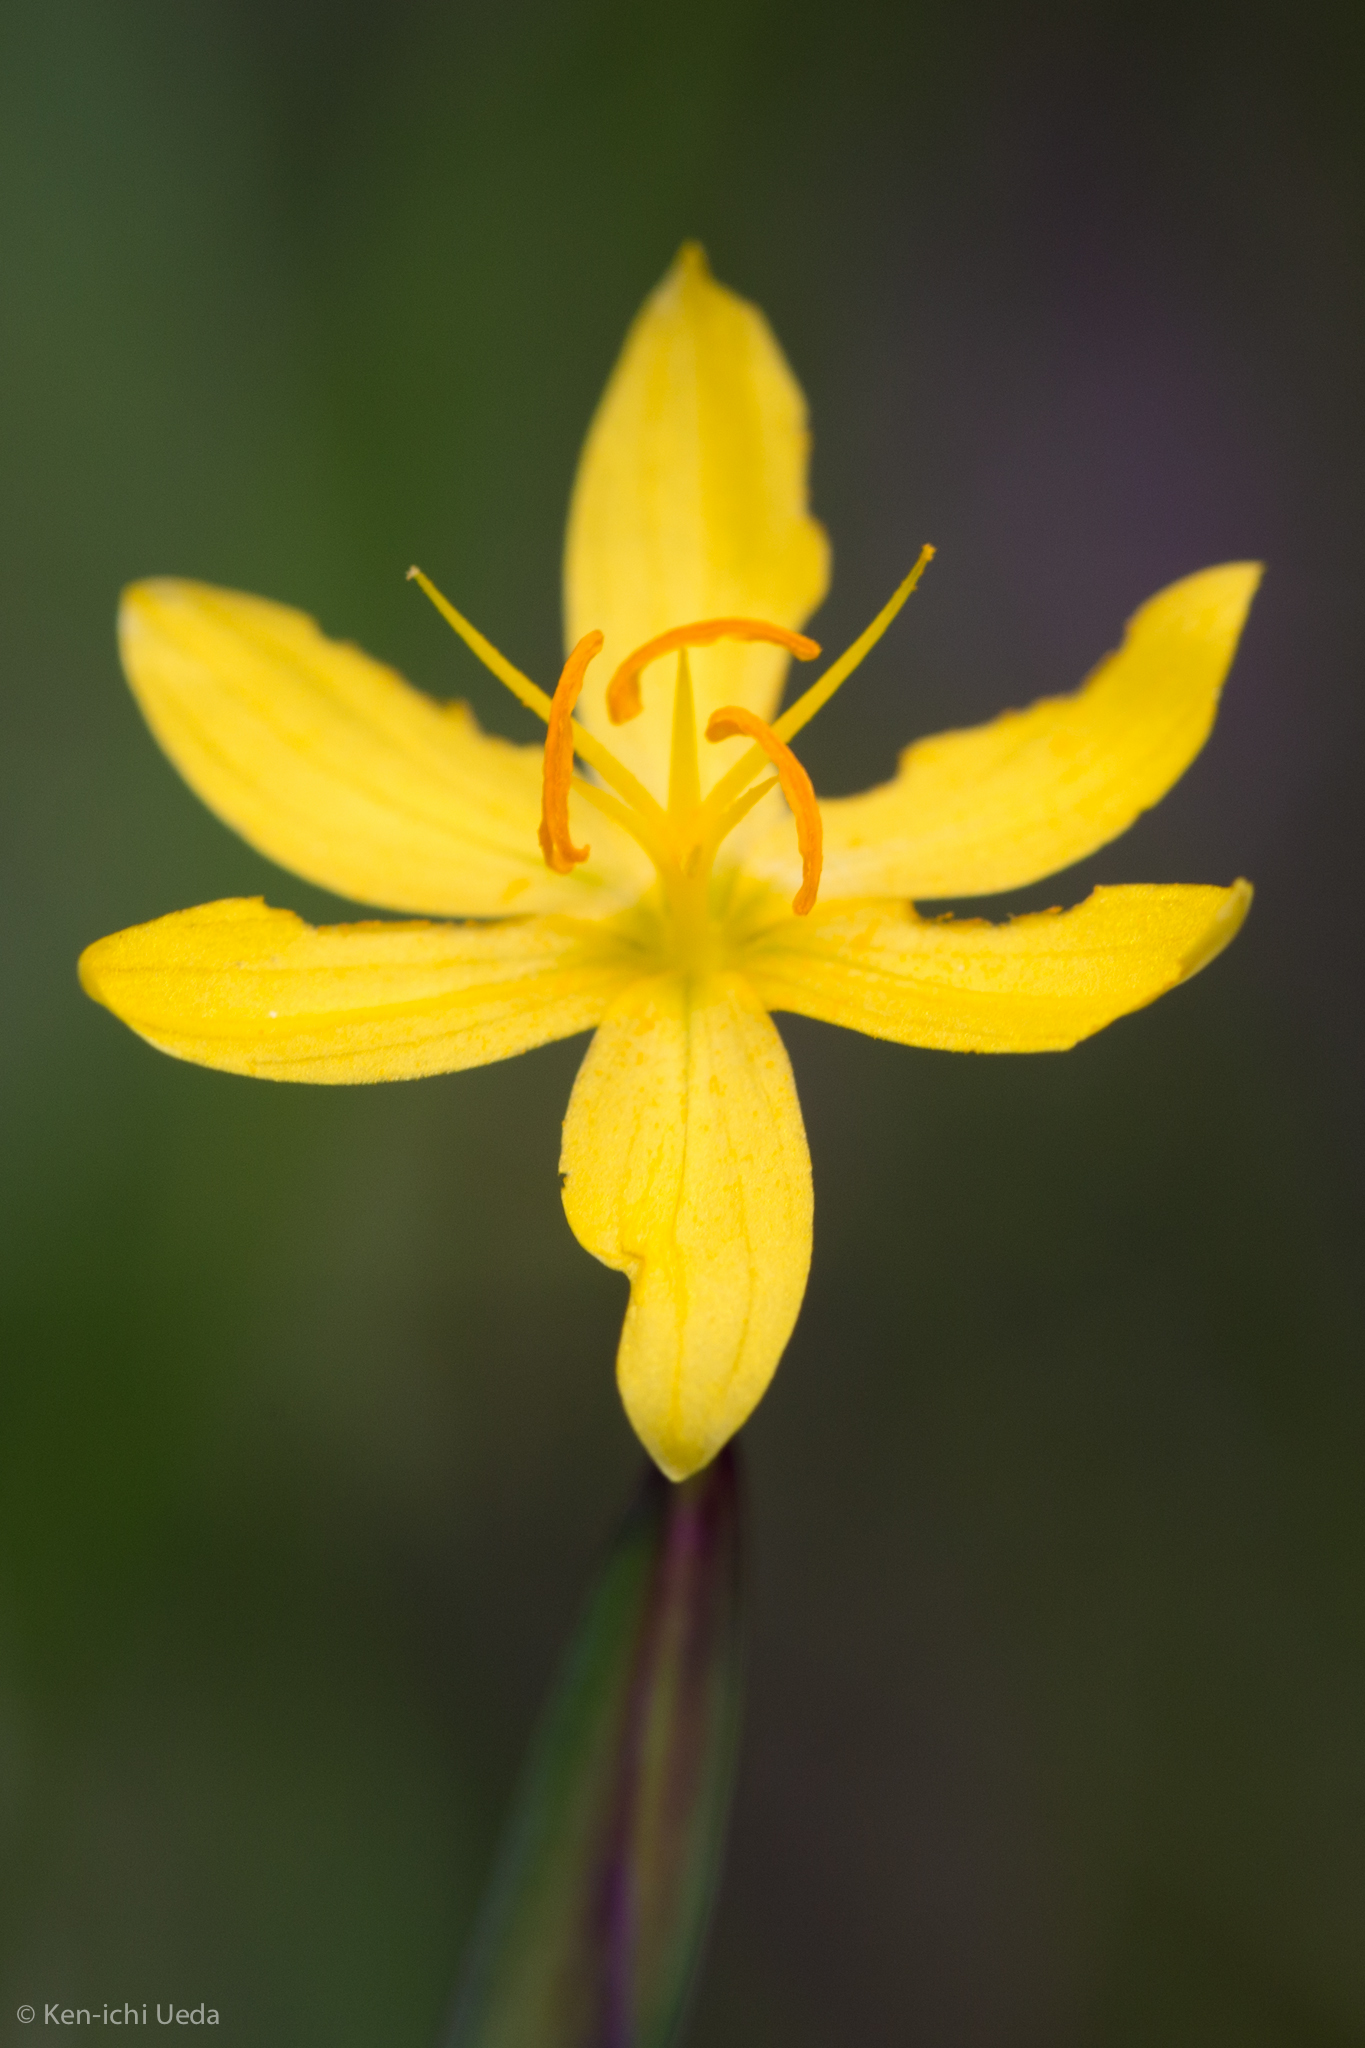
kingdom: Plantae
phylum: Tracheophyta
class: Liliopsida
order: Asparagales
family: Iridaceae
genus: Sisyrinchium
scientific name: Sisyrinchium elmeri
